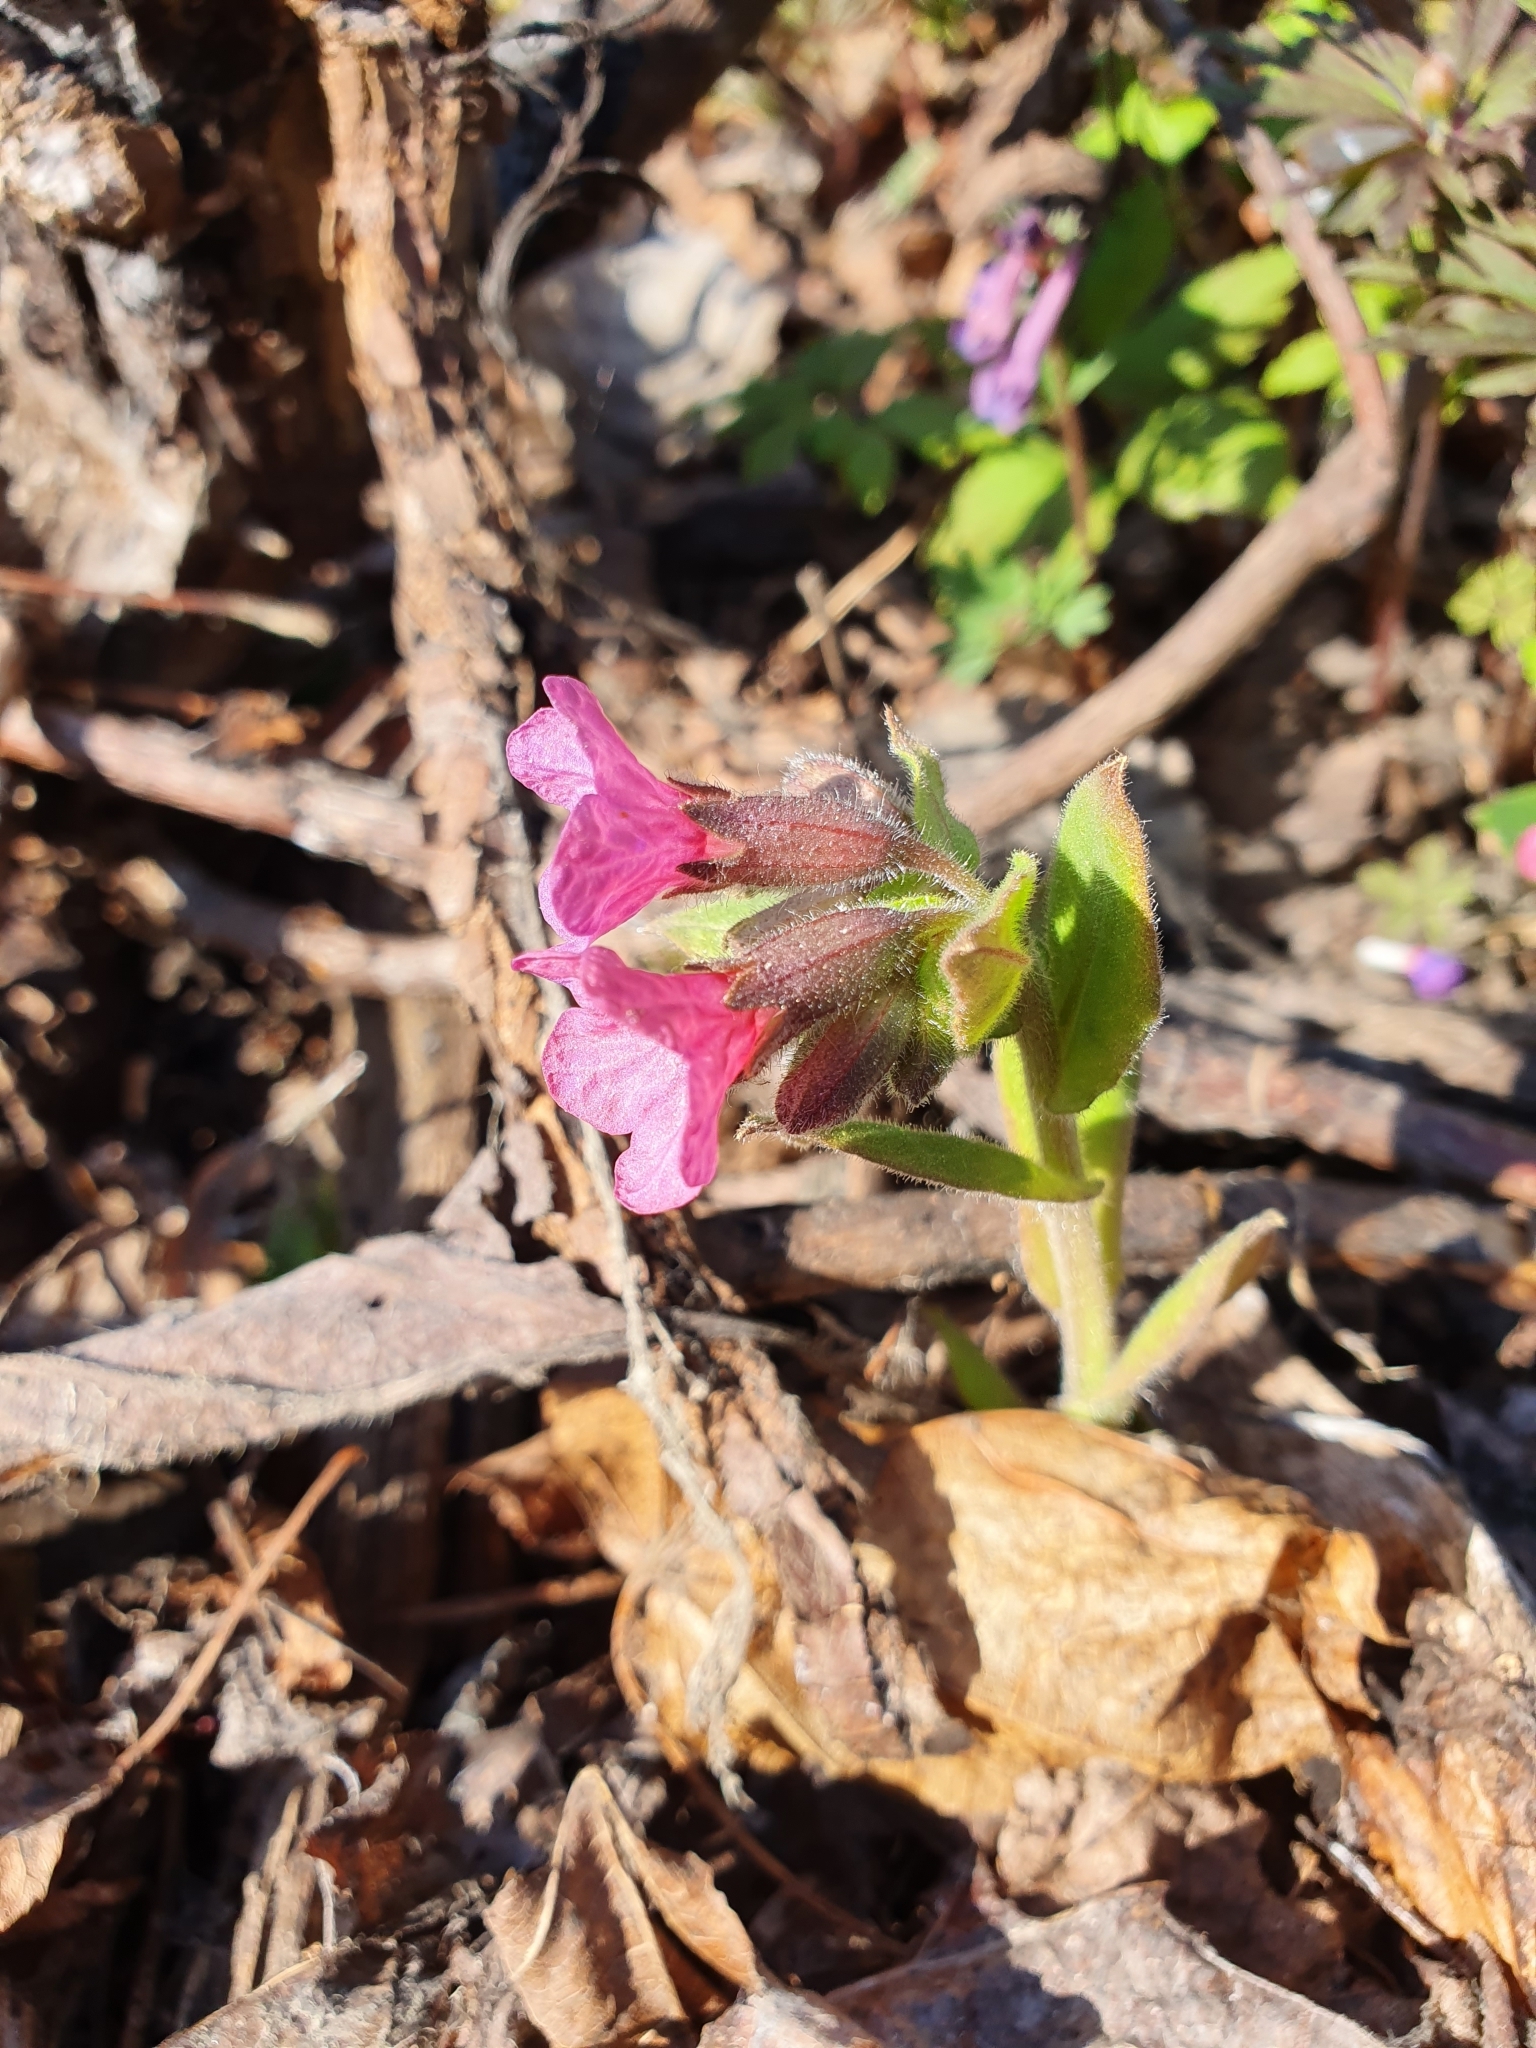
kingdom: Plantae
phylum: Tracheophyta
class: Magnoliopsida
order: Boraginales
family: Boraginaceae
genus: Pulmonaria
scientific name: Pulmonaria obscura
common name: Suffolk lungwort
